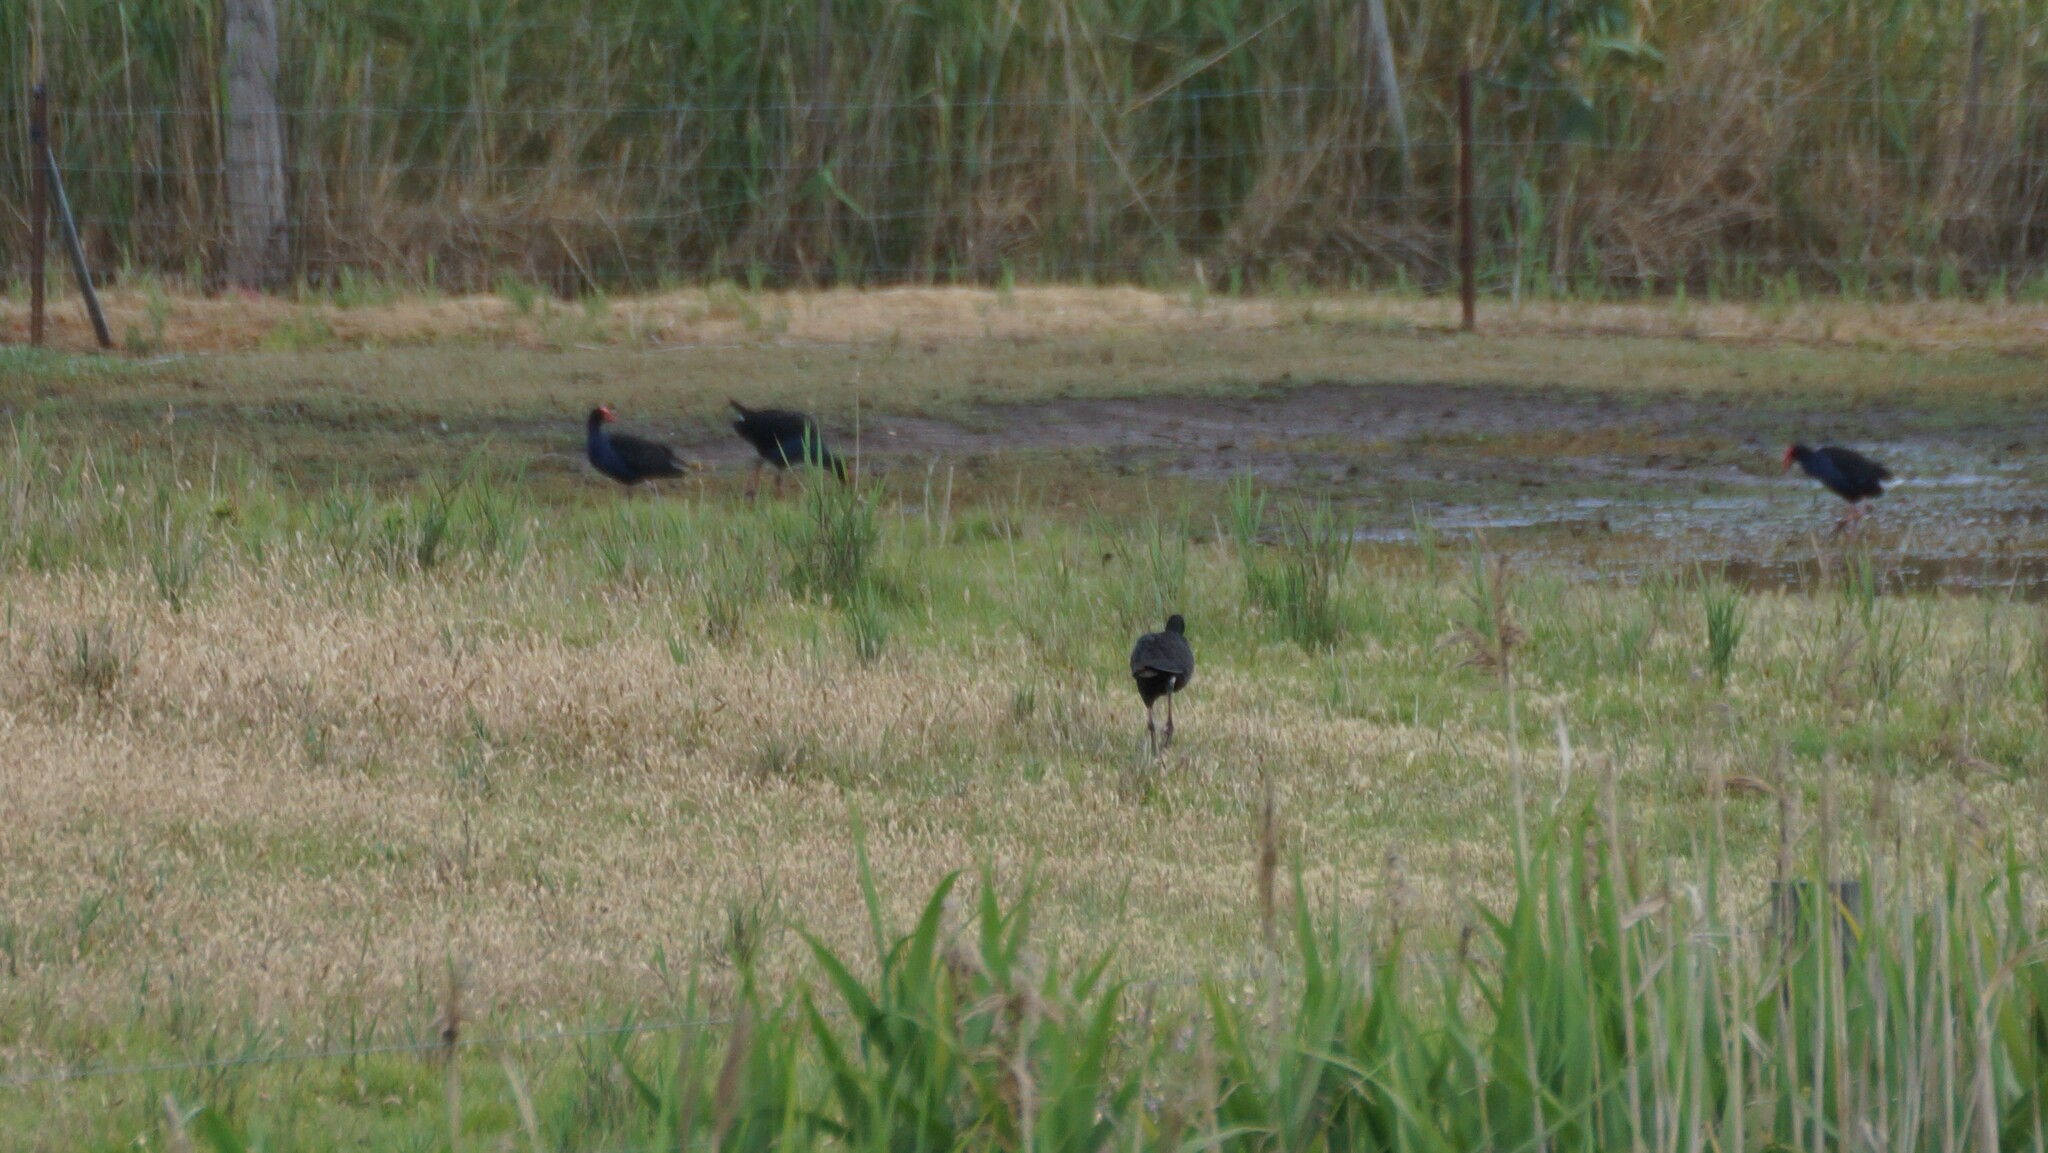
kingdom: Animalia
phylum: Chordata
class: Aves
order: Gruiformes
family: Rallidae
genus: Porphyrio
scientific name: Porphyrio melanotus
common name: Australasian swamphen
